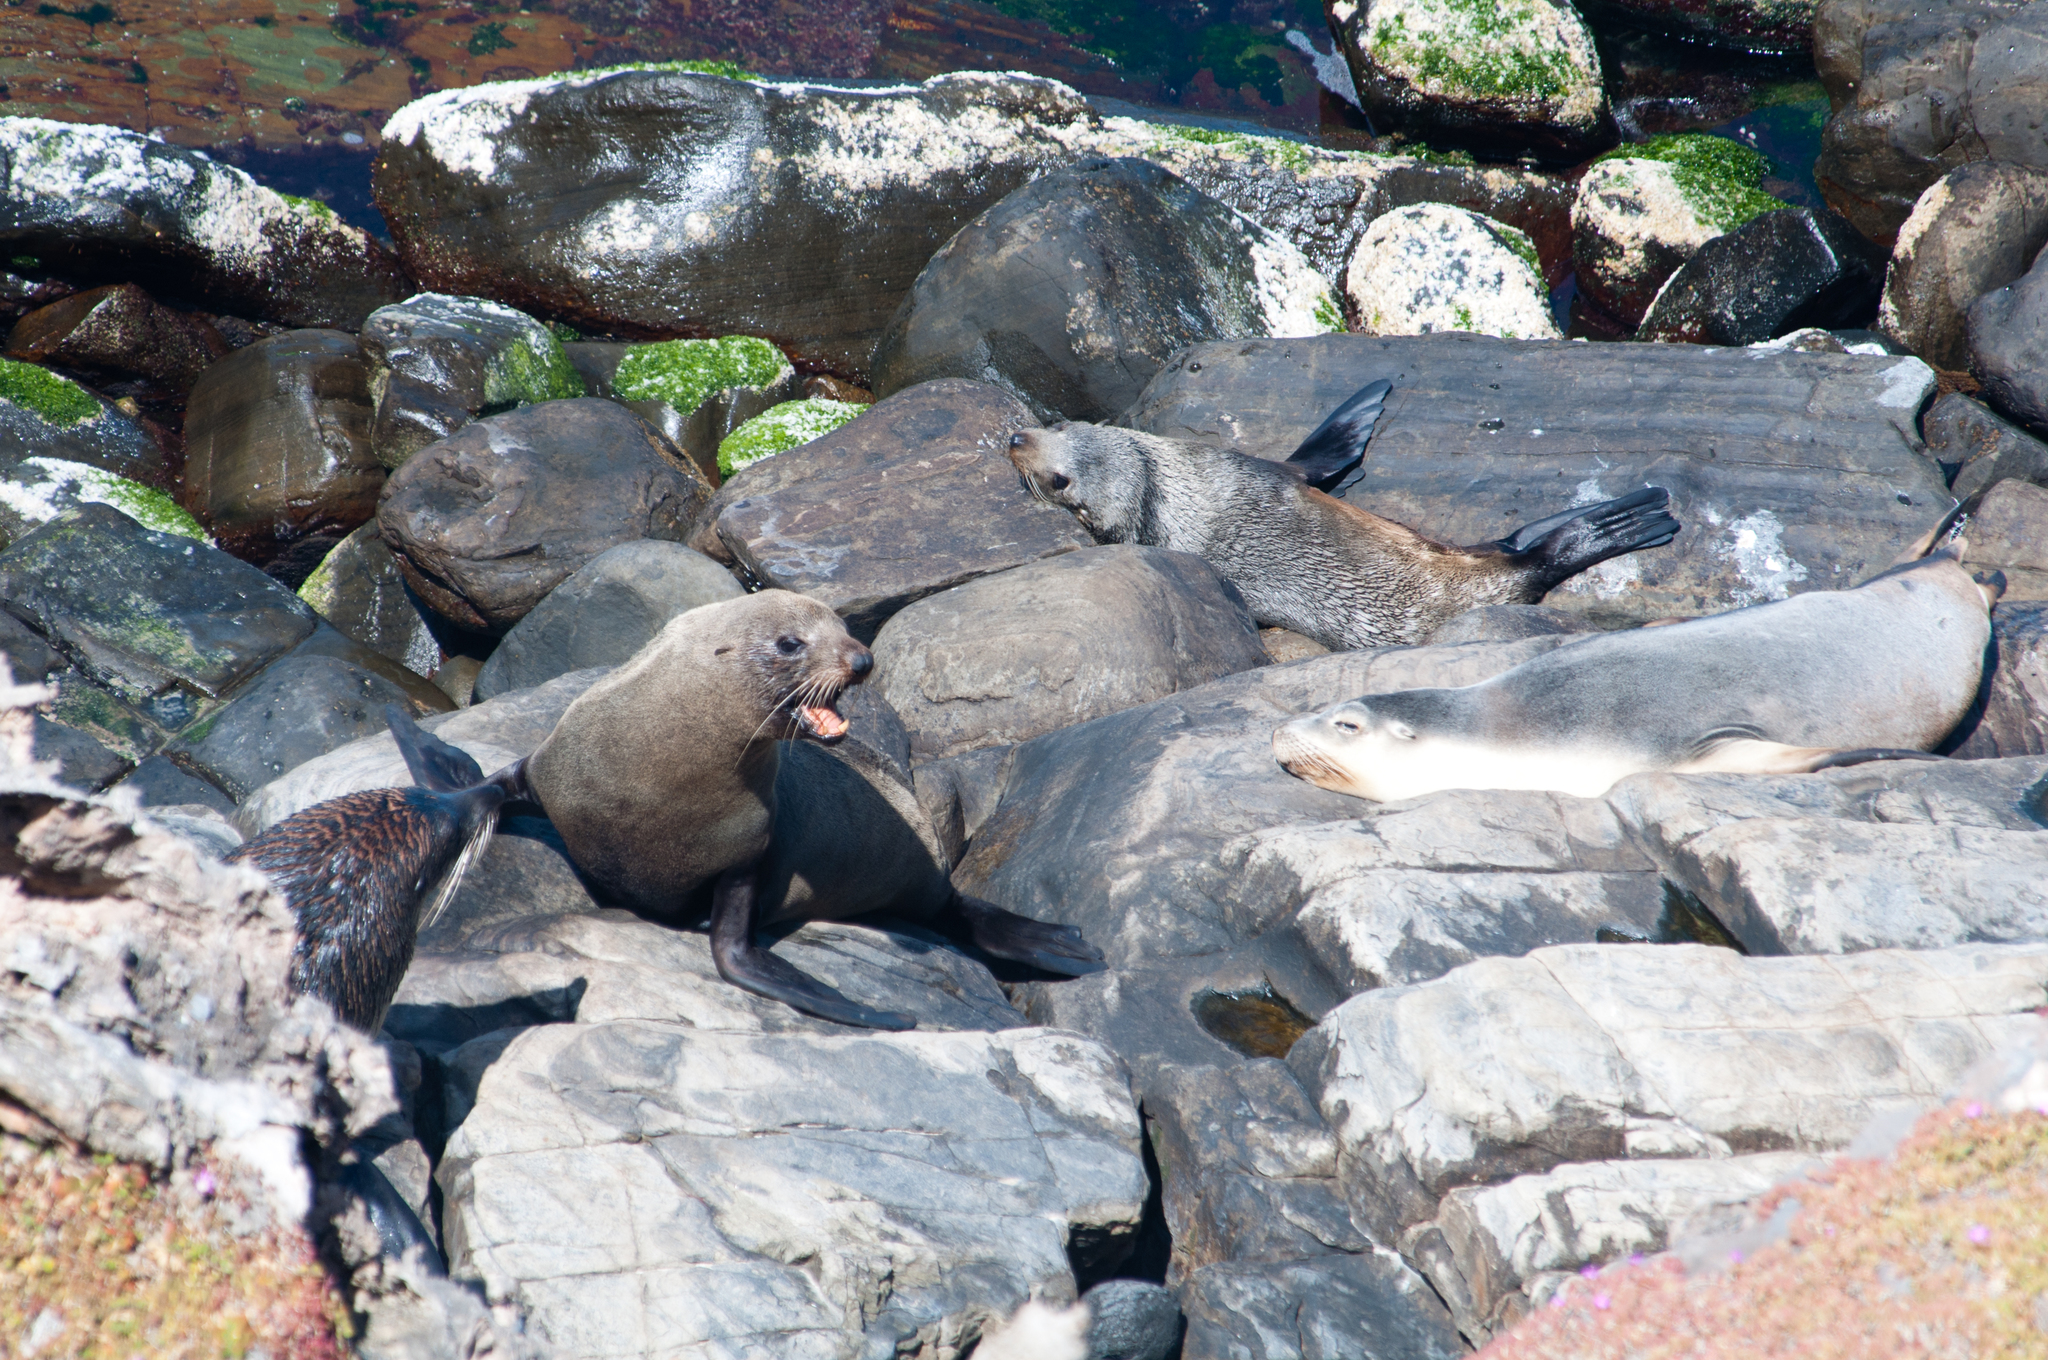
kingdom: Animalia
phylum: Chordata
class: Mammalia
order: Carnivora
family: Otariidae
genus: Neophoca
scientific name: Neophoca cinerea
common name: Australian sea lion
